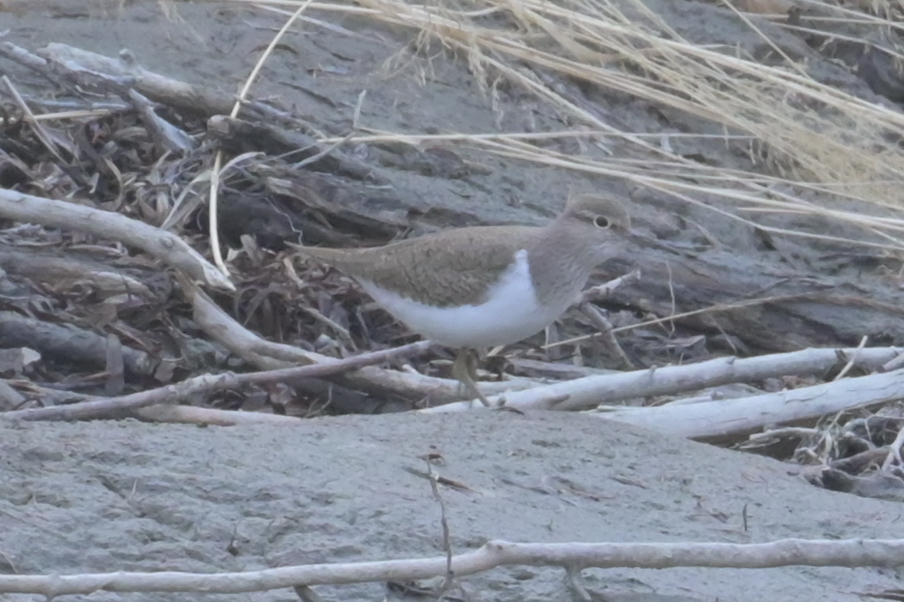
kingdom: Animalia
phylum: Chordata
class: Aves
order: Charadriiformes
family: Scolopacidae
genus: Actitis
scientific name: Actitis hypoleucos
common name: Common sandpiper
